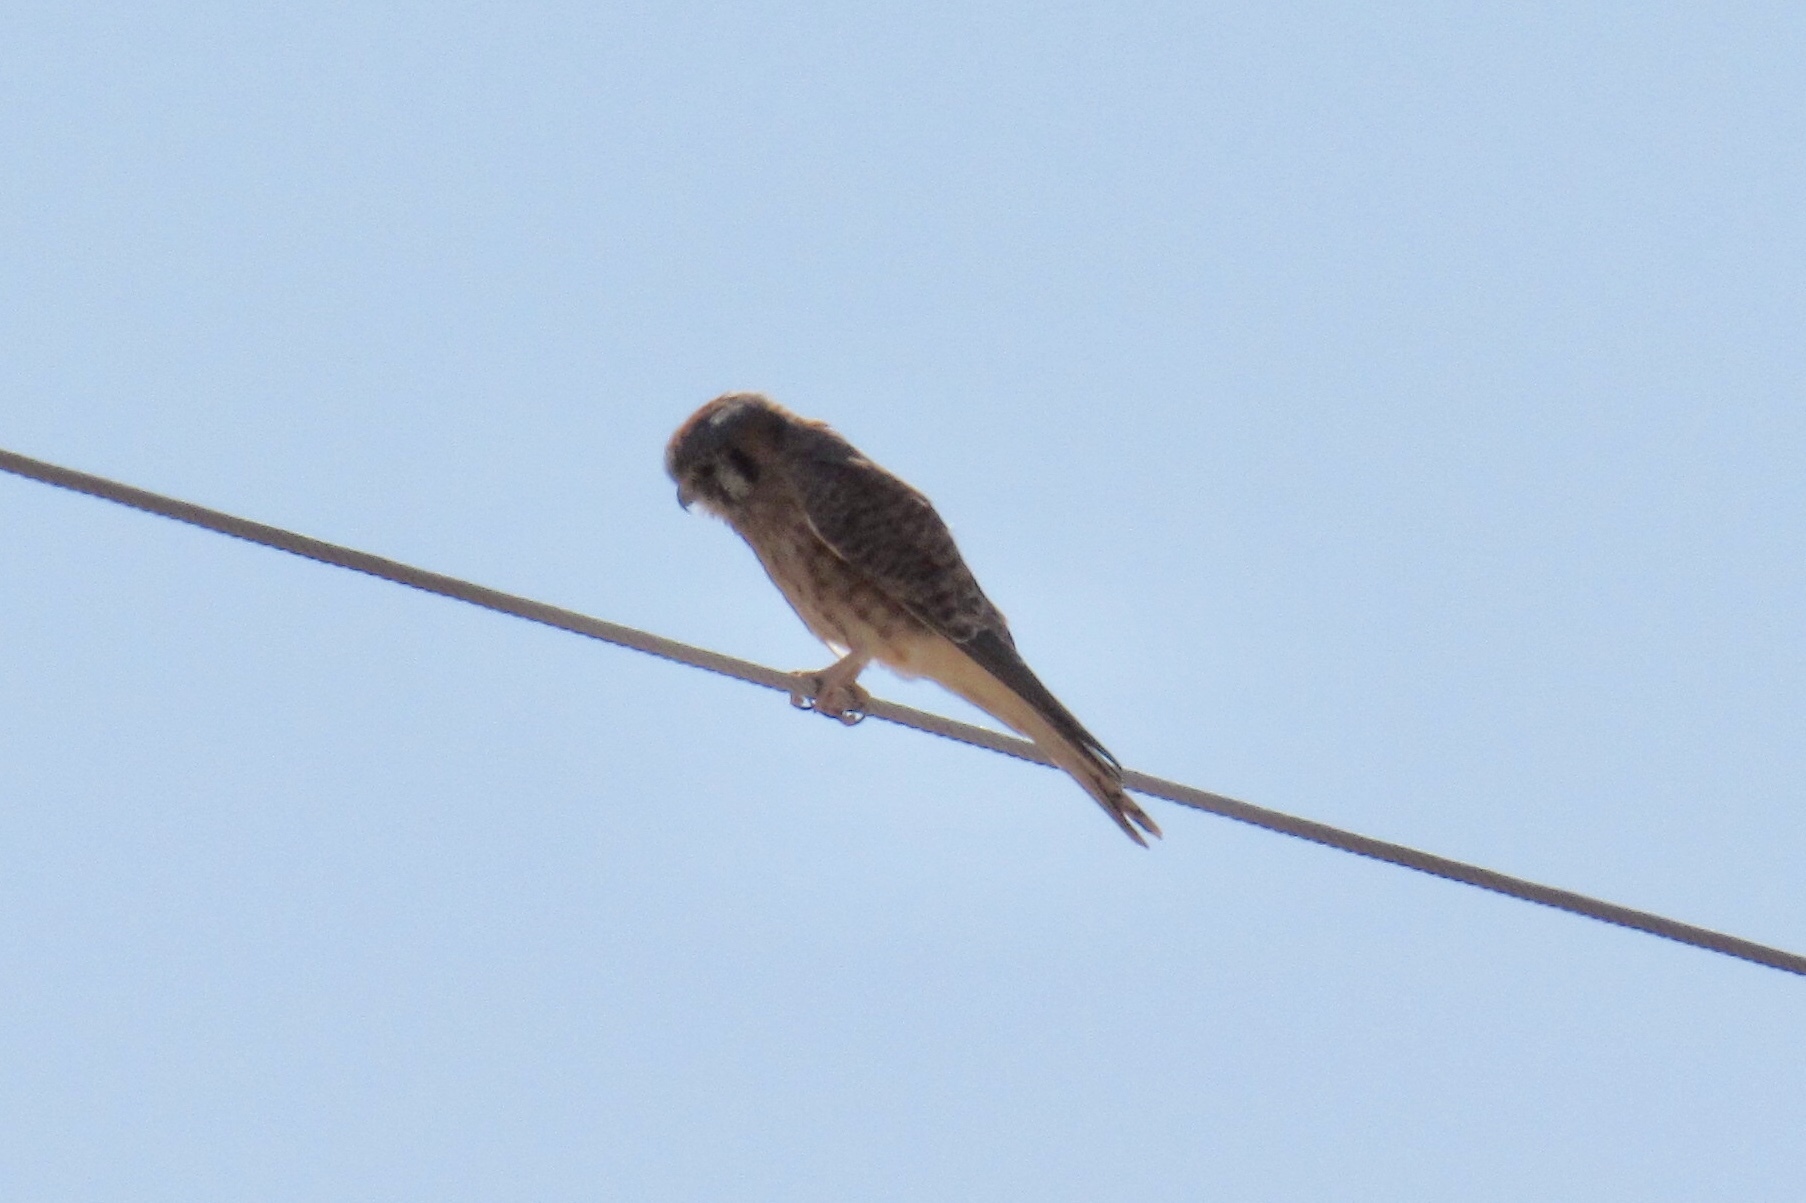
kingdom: Animalia
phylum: Chordata
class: Aves
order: Falconiformes
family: Falconidae
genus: Falco
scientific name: Falco sparverius
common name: American kestrel
